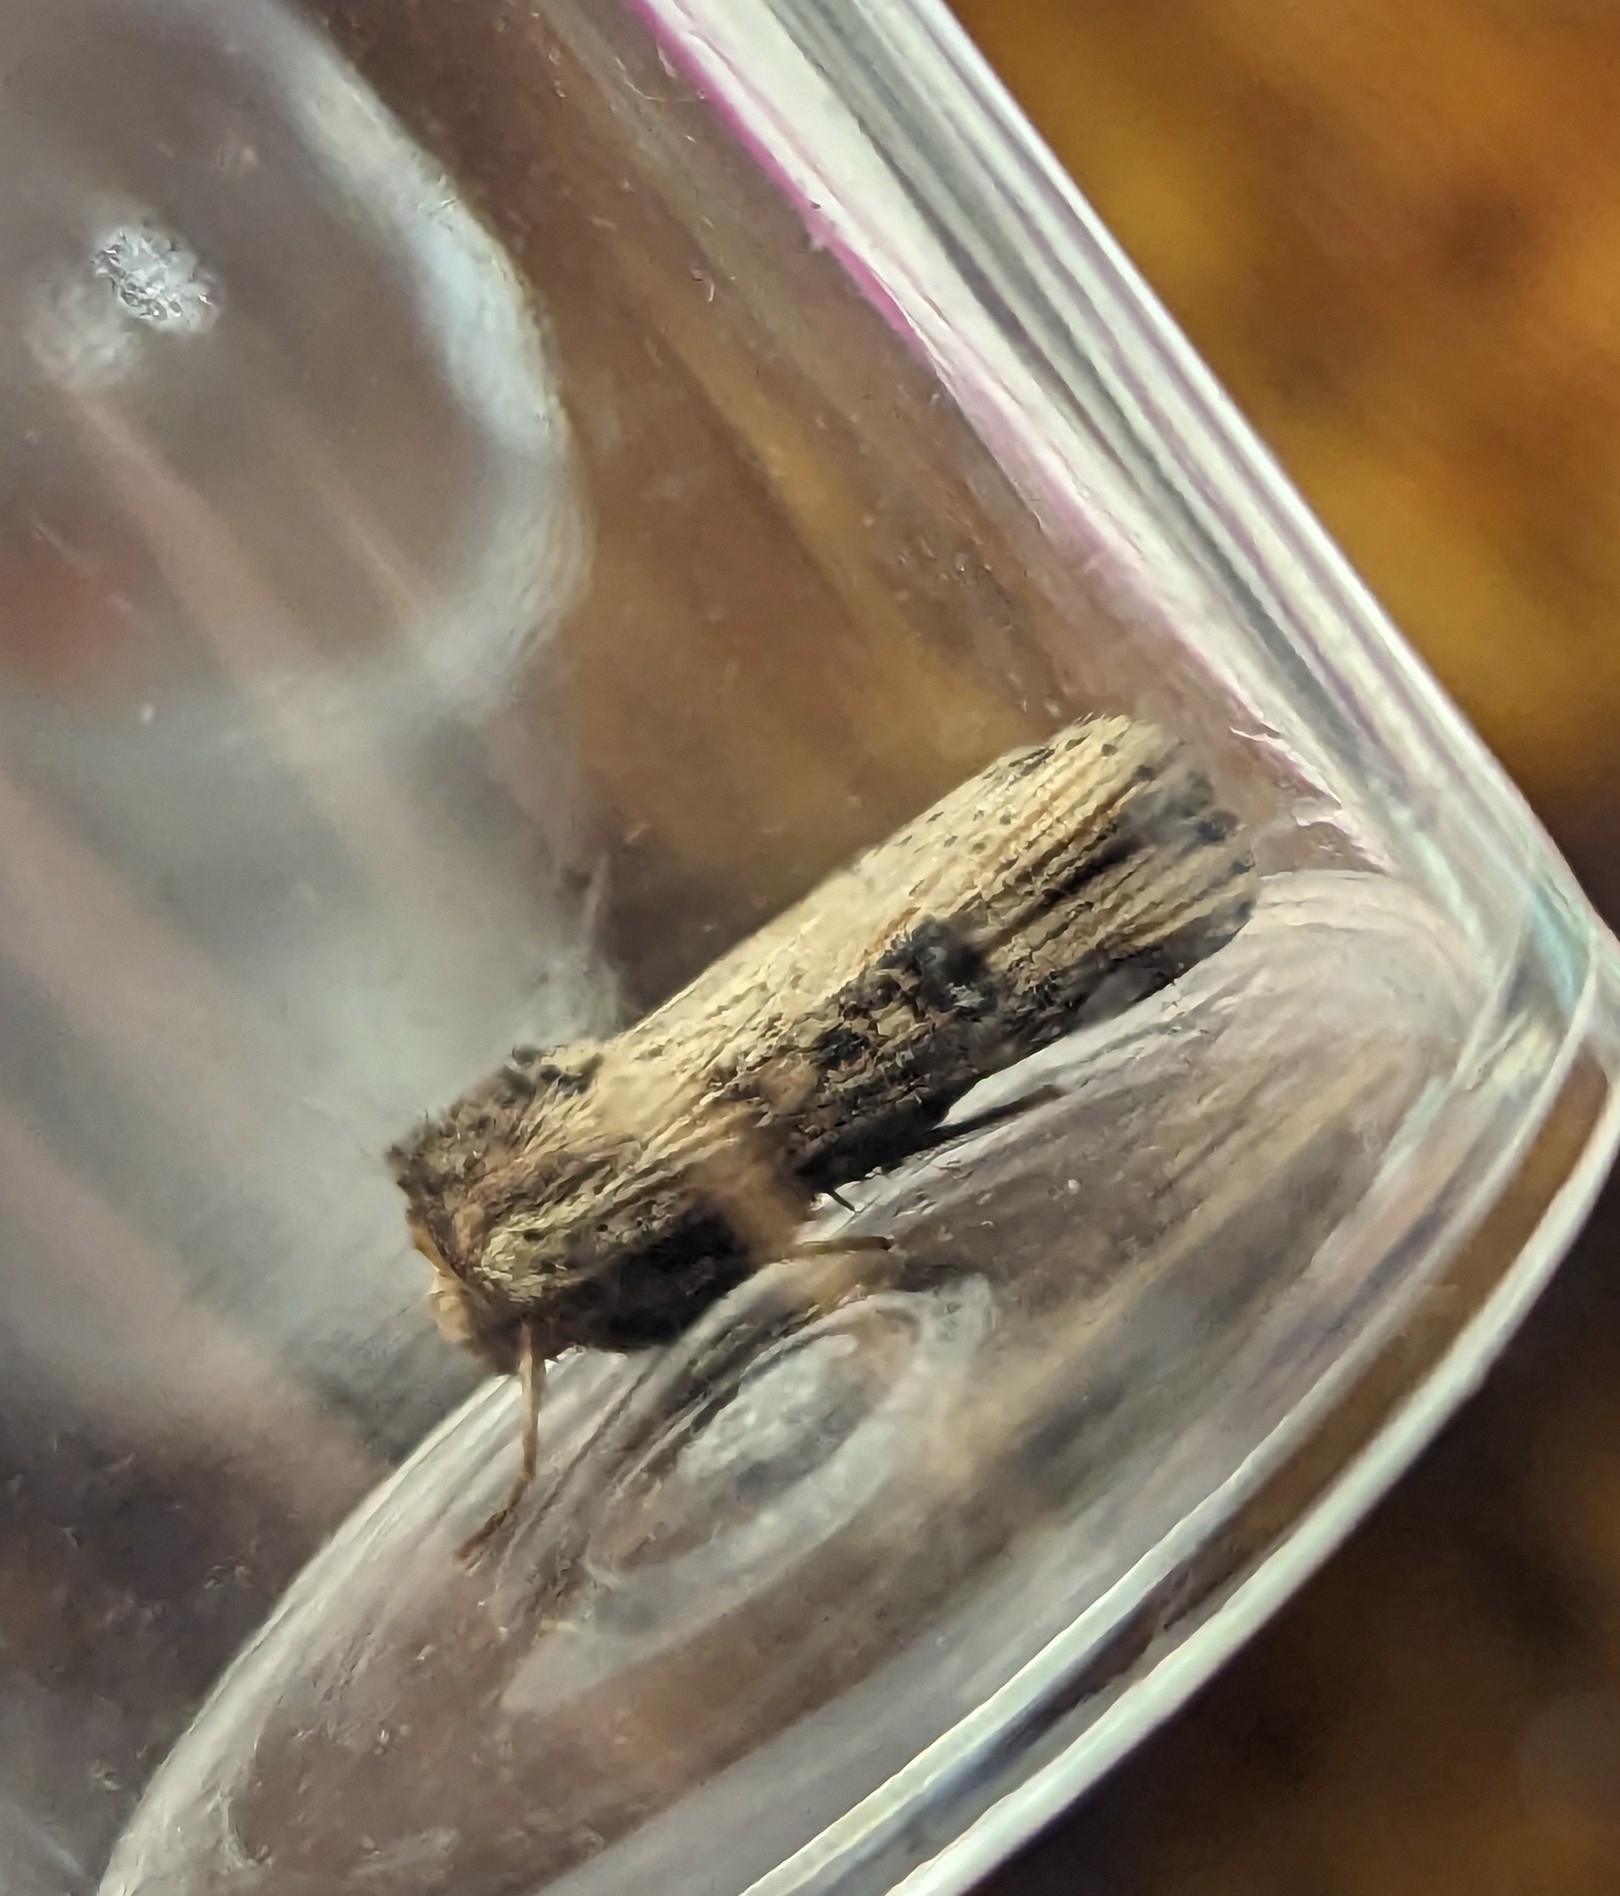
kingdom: Animalia
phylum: Arthropoda
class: Insecta
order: Lepidoptera
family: Noctuidae
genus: Axylia
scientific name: Axylia putris
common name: Flame
